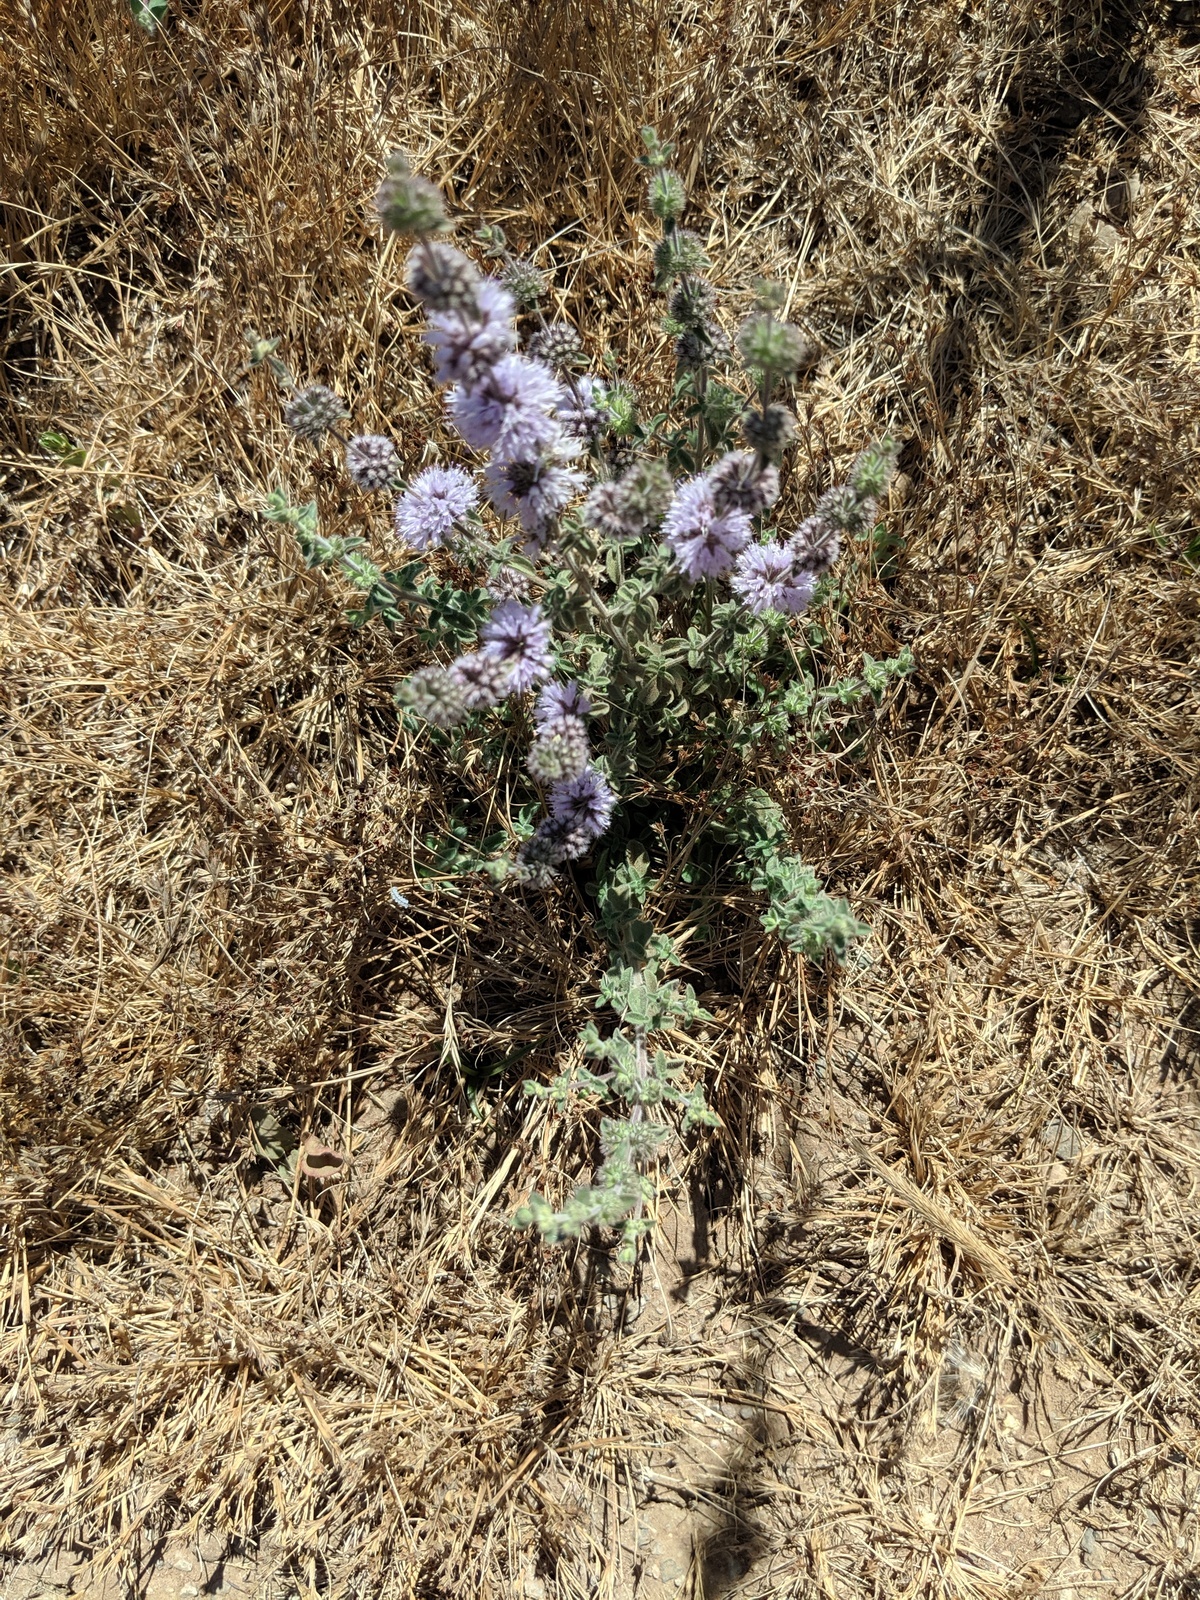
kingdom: Plantae
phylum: Tracheophyta
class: Magnoliopsida
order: Lamiales
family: Lamiaceae
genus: Mentha
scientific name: Mentha pulegium
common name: Pennyroyal
